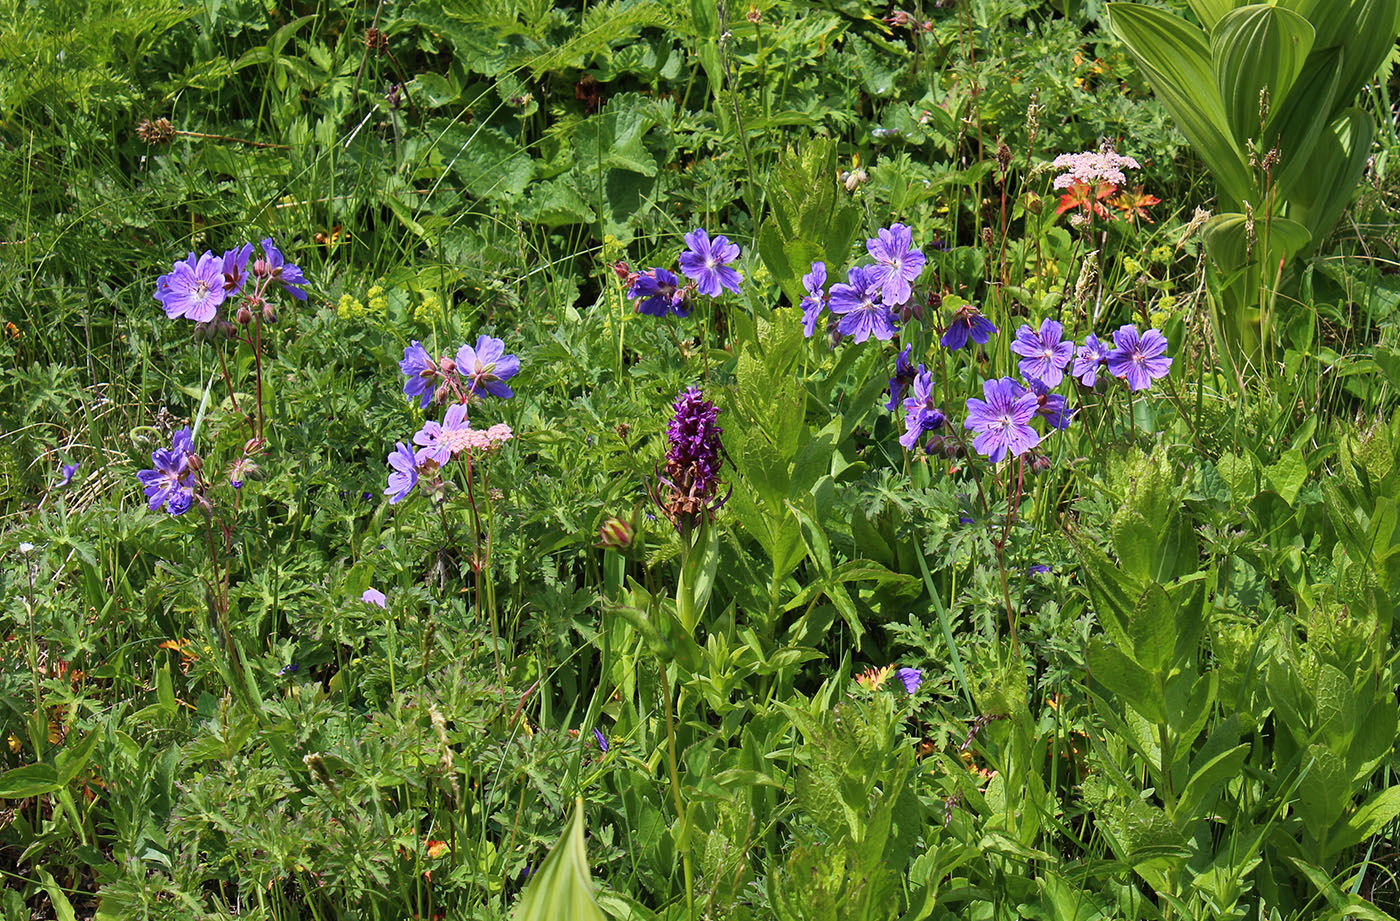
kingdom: Plantae
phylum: Tracheophyta
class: Magnoliopsida
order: Geraniales
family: Geraniaceae
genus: Geranium
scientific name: Geranium gymnocaulon
